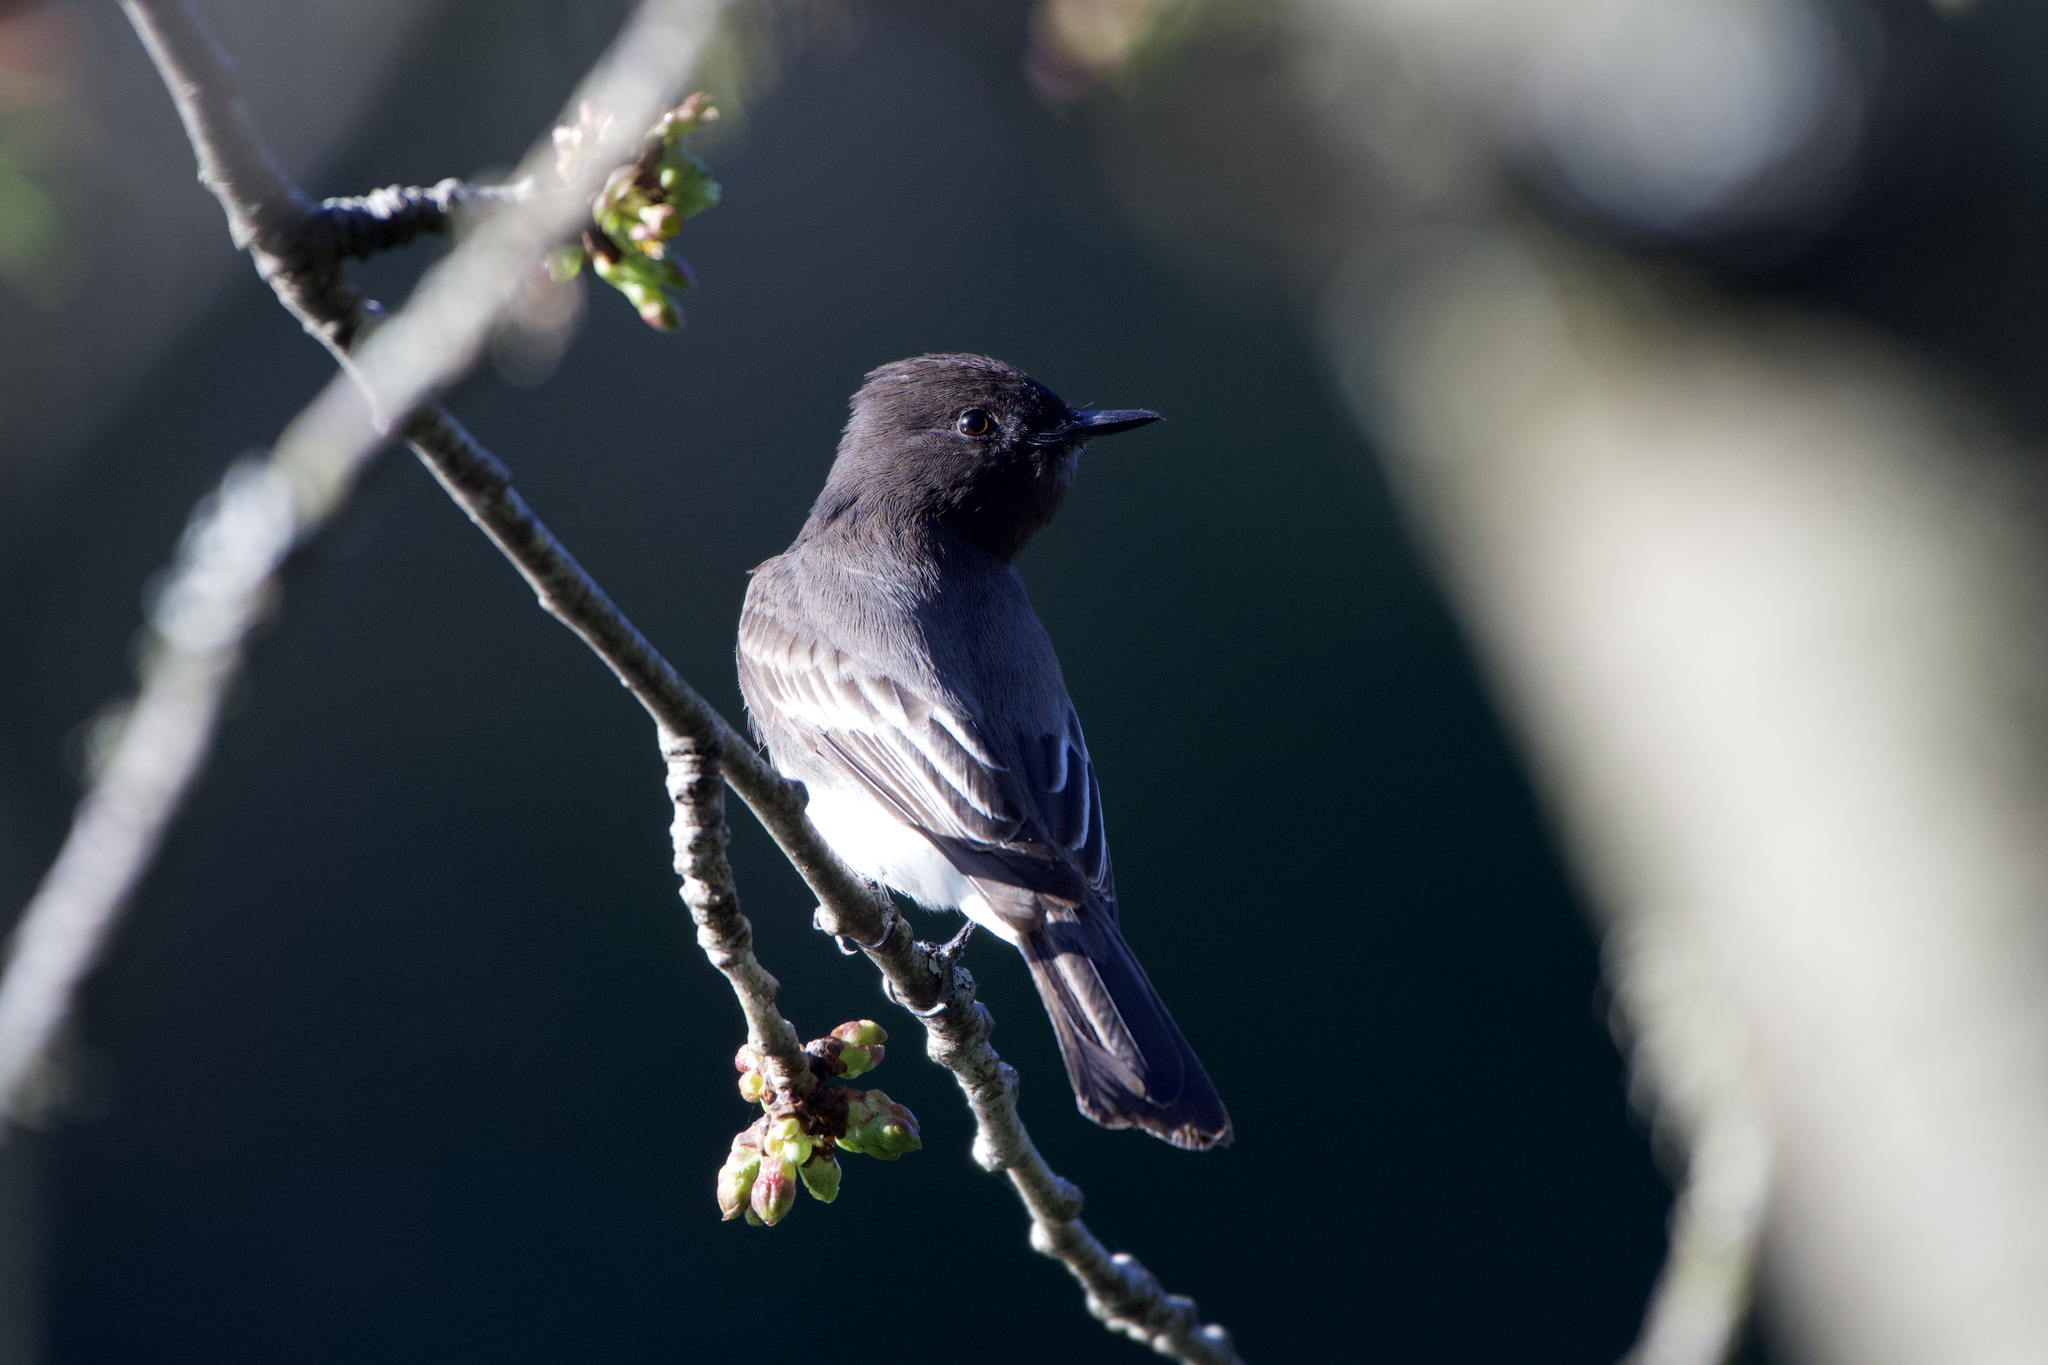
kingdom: Animalia
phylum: Chordata
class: Aves
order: Passeriformes
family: Tyrannidae
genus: Sayornis
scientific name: Sayornis nigricans
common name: Black phoebe
